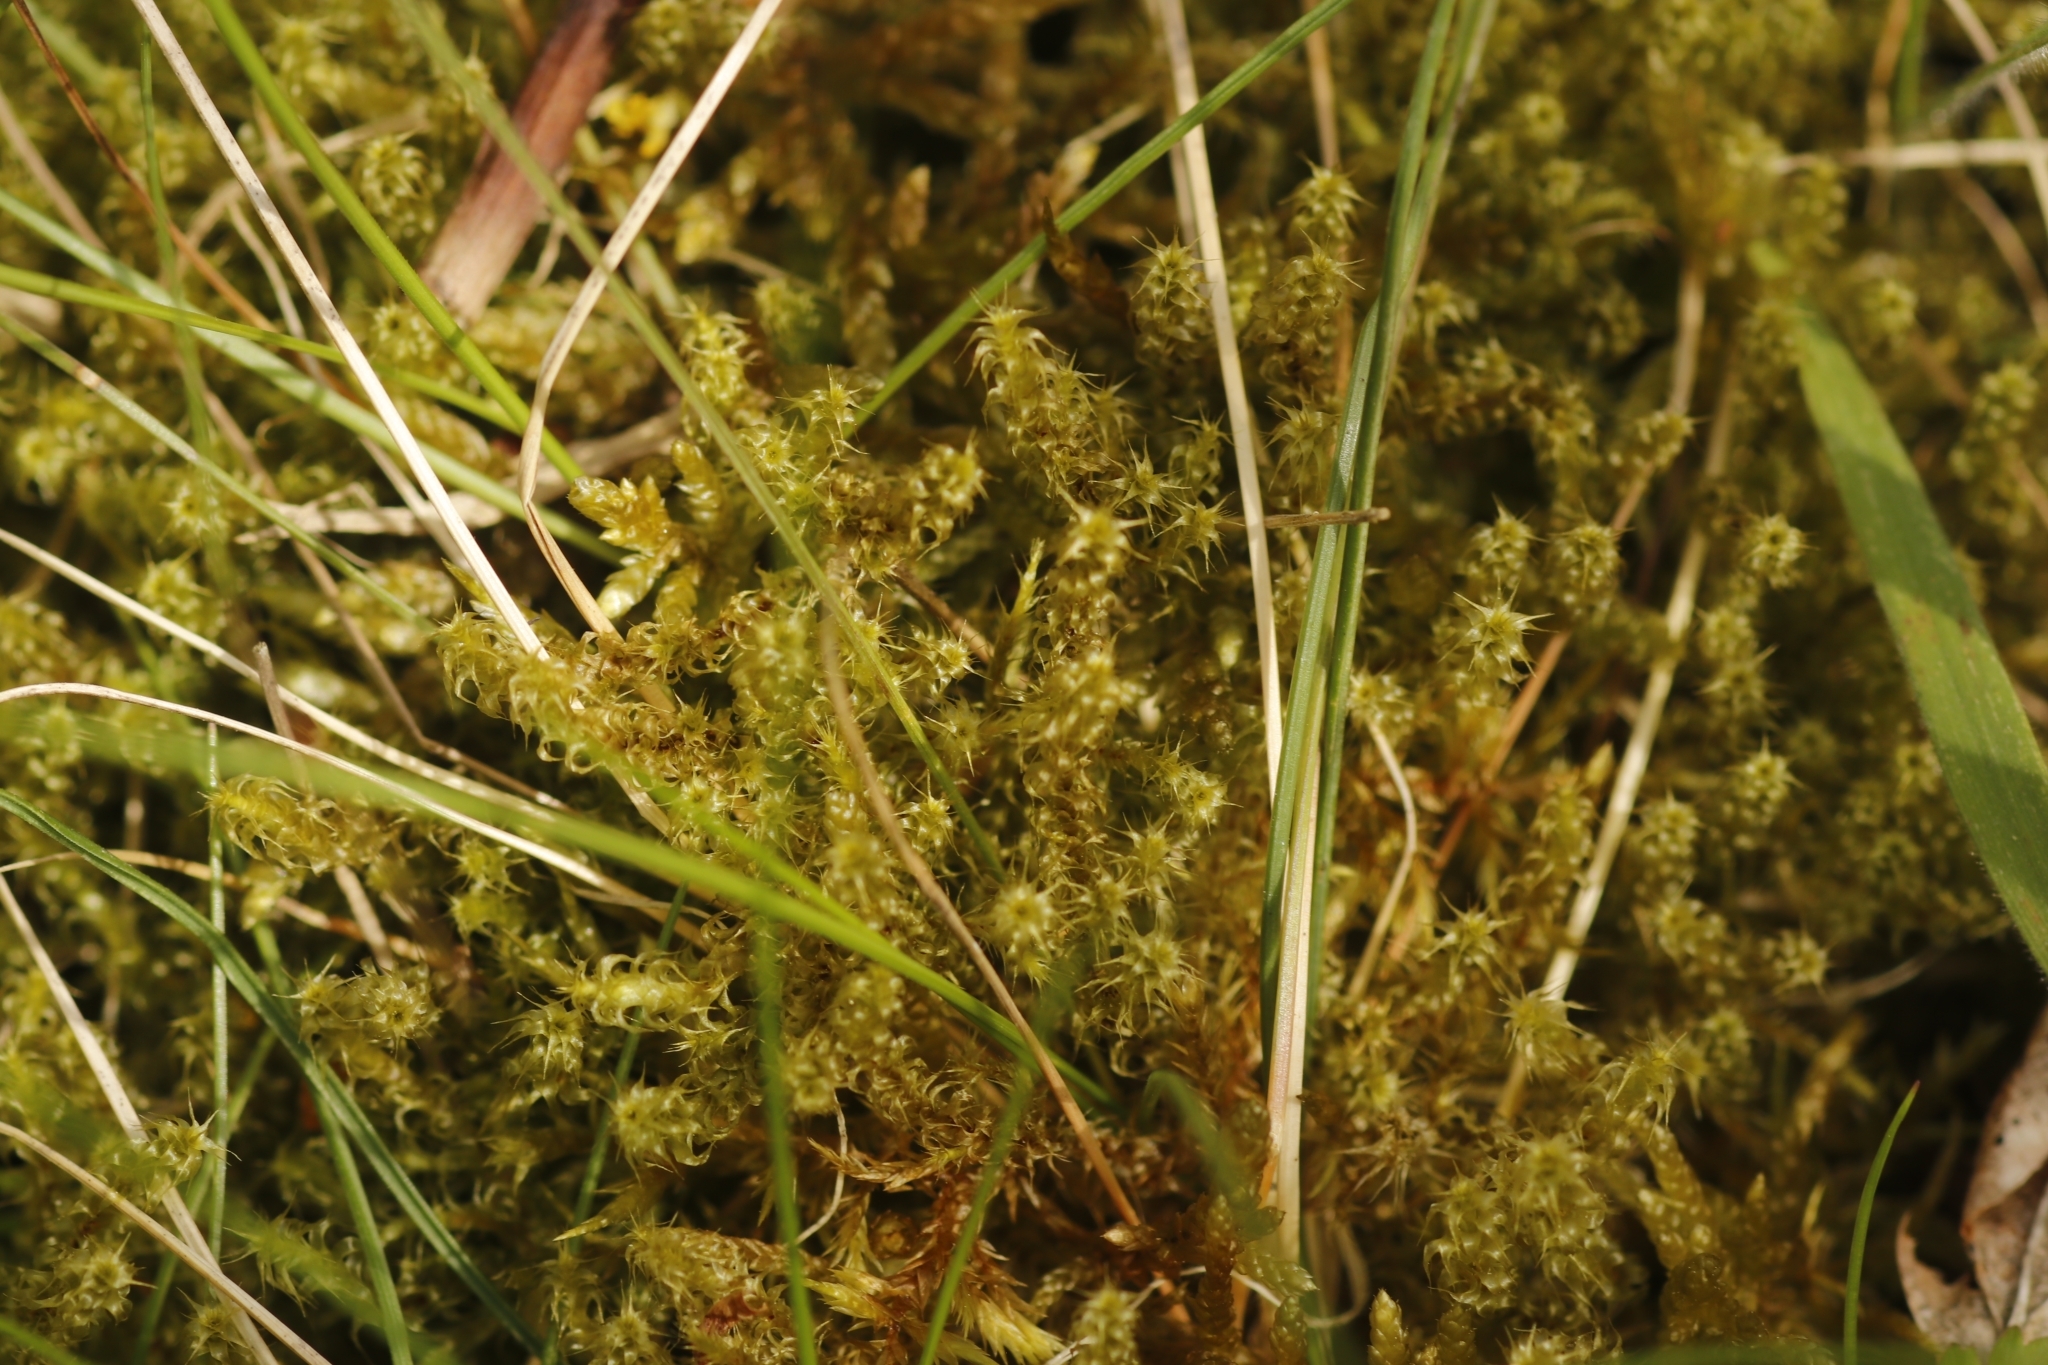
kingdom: Plantae
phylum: Bryophyta
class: Bryopsida
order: Hypnales
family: Hylocomiaceae
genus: Rhytidiadelphus
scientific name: Rhytidiadelphus squarrosus
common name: Springy turf-moss
